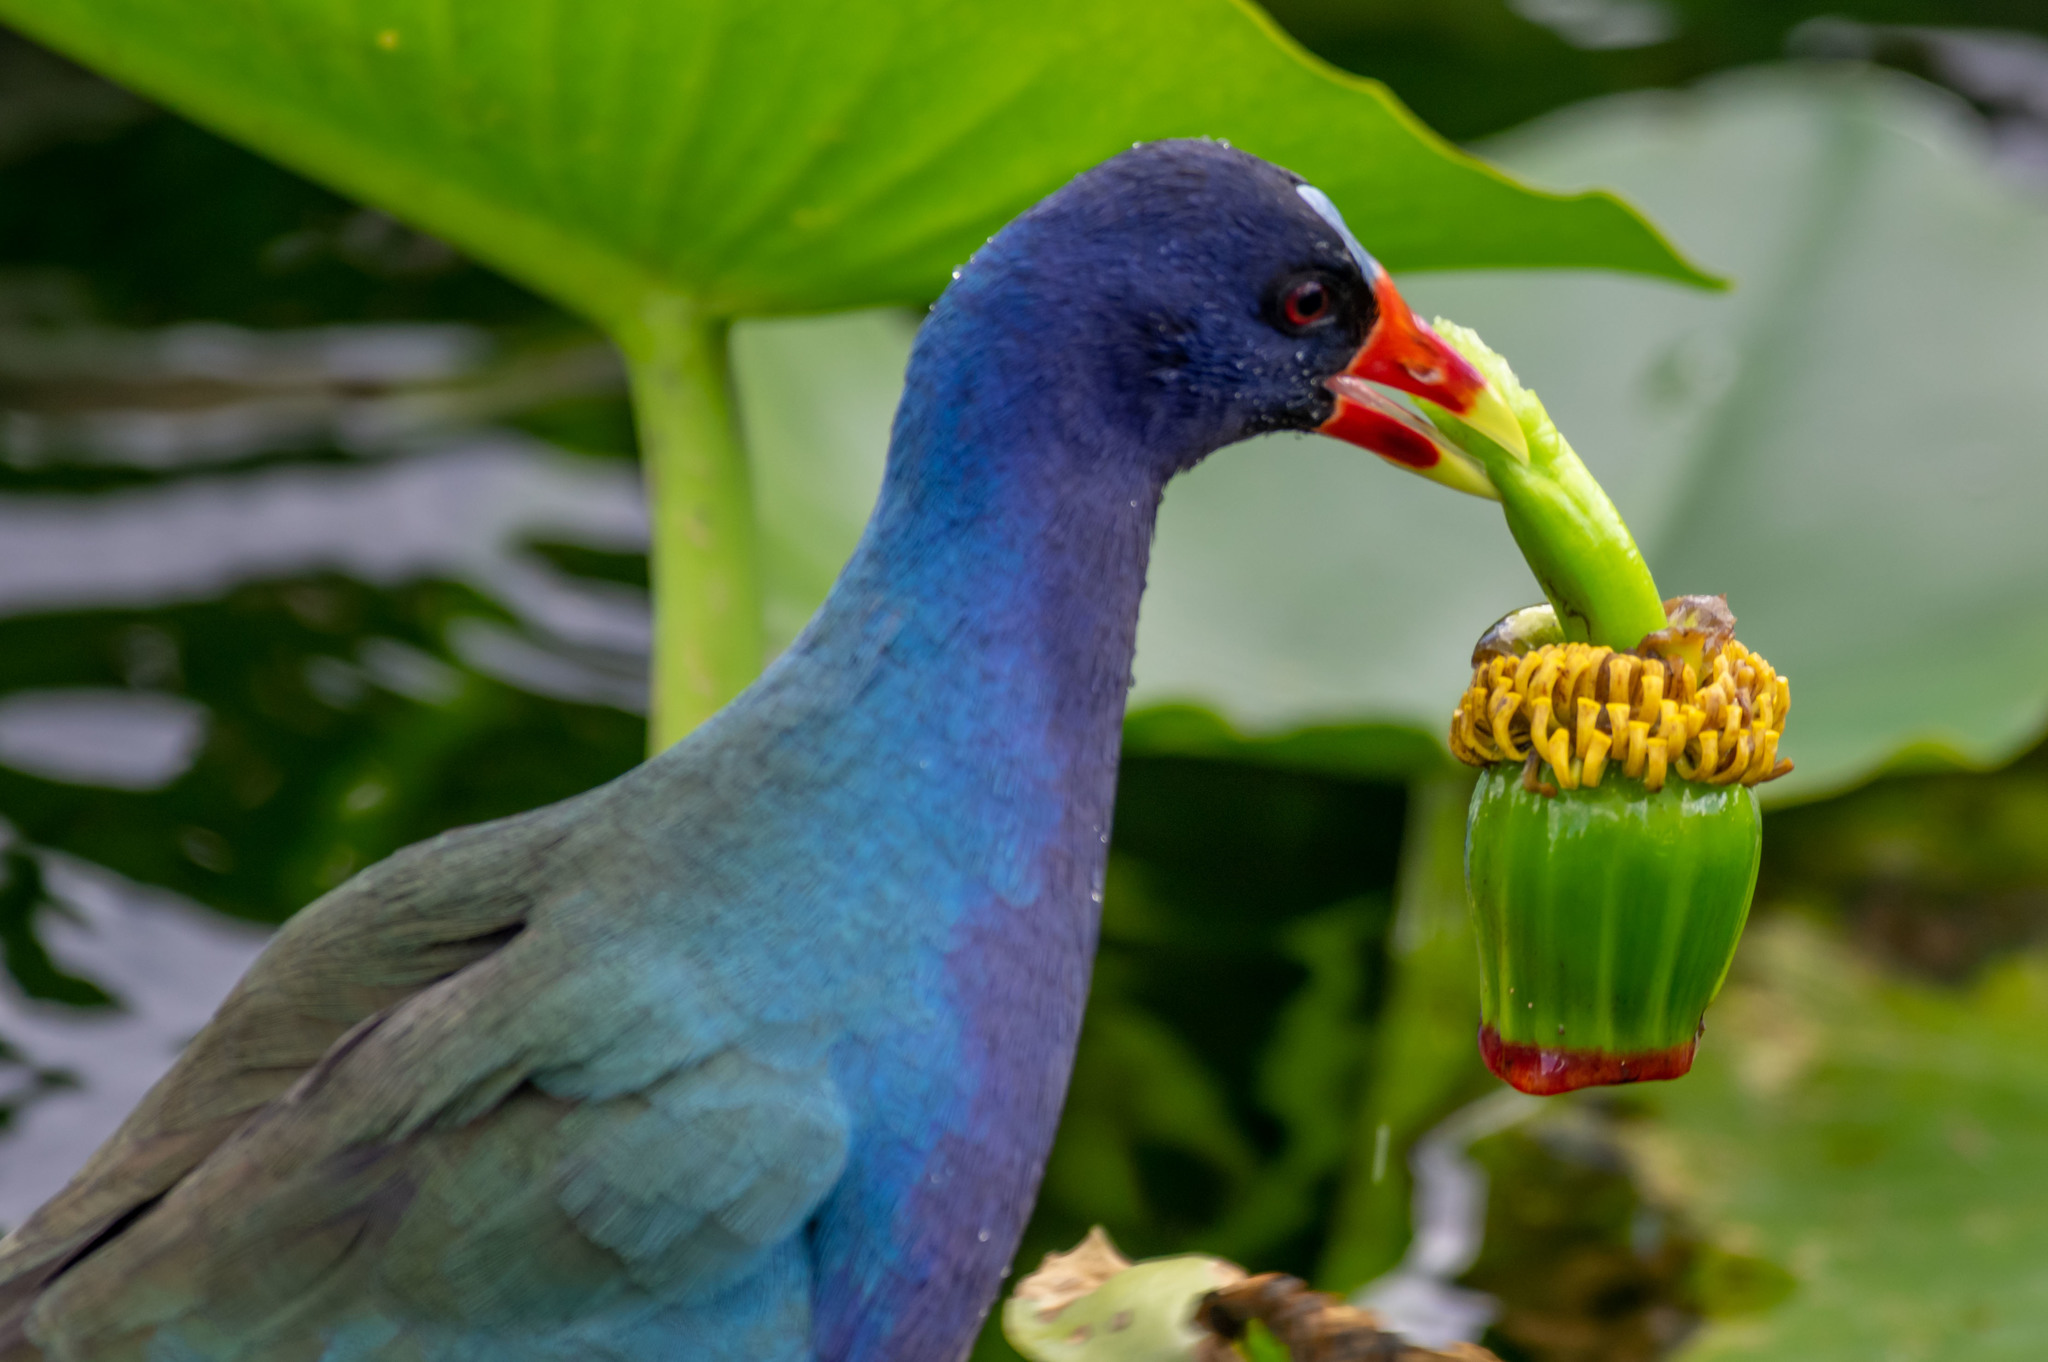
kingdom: Animalia
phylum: Chordata
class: Aves
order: Gruiformes
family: Rallidae
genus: Porphyrio
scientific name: Porphyrio martinica
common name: Purple gallinule
